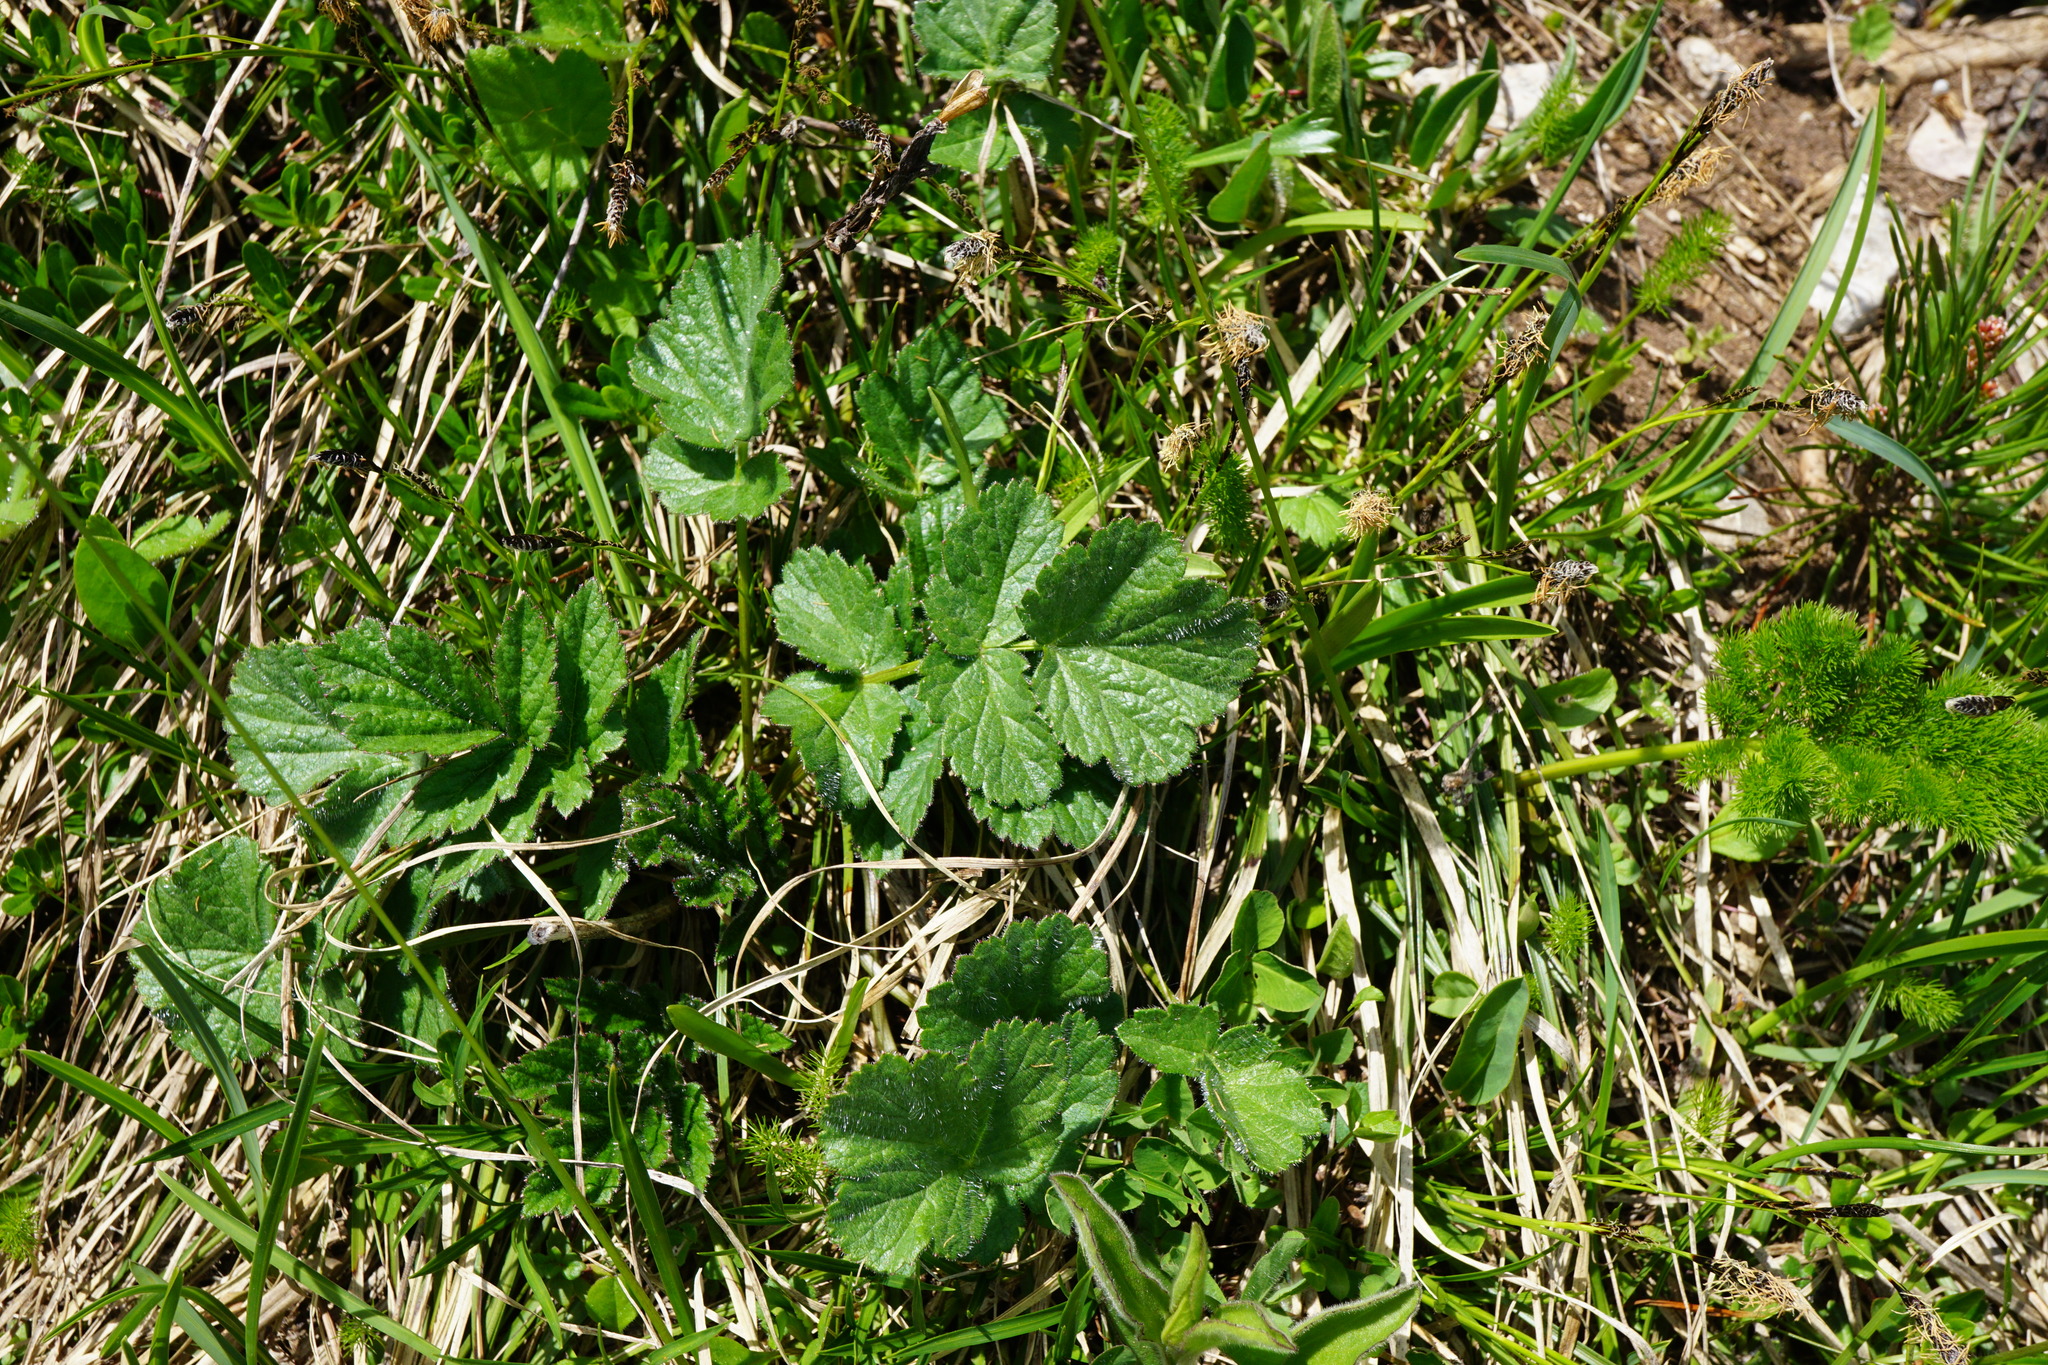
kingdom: Plantae
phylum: Tracheophyta
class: Magnoliopsida
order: Rosales
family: Rosaceae
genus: Geum
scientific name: Geum montanum
